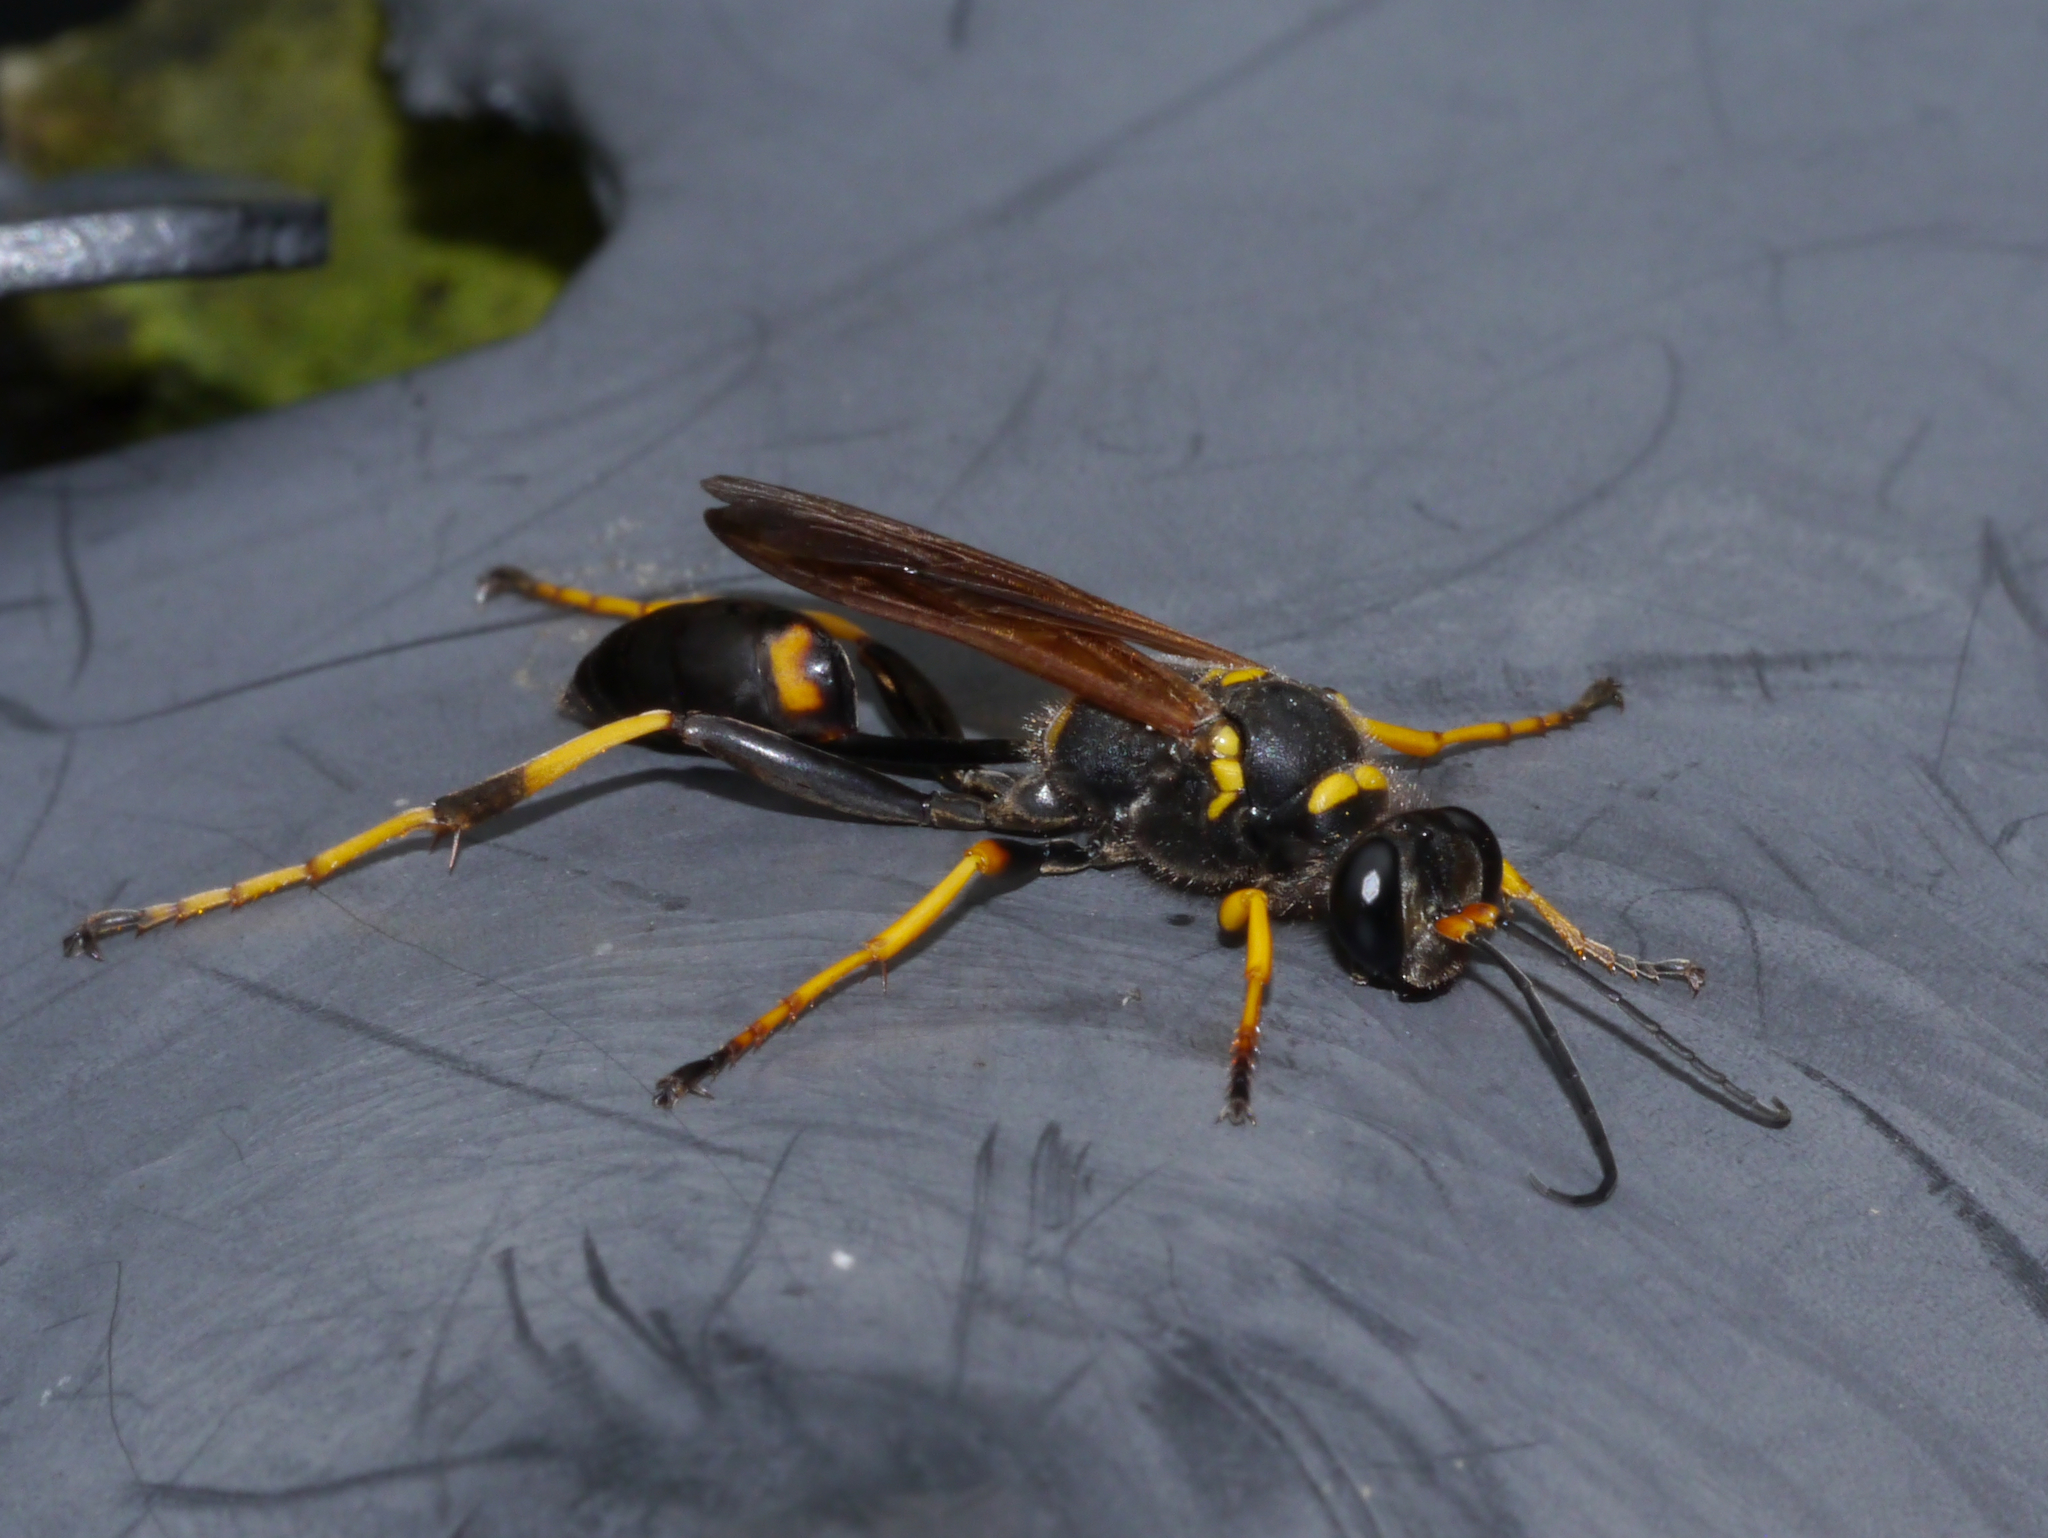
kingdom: Animalia
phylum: Arthropoda
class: Insecta
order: Hymenoptera
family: Sphecidae
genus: Sceliphron
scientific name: Sceliphron caementarium
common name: Mud dauber
